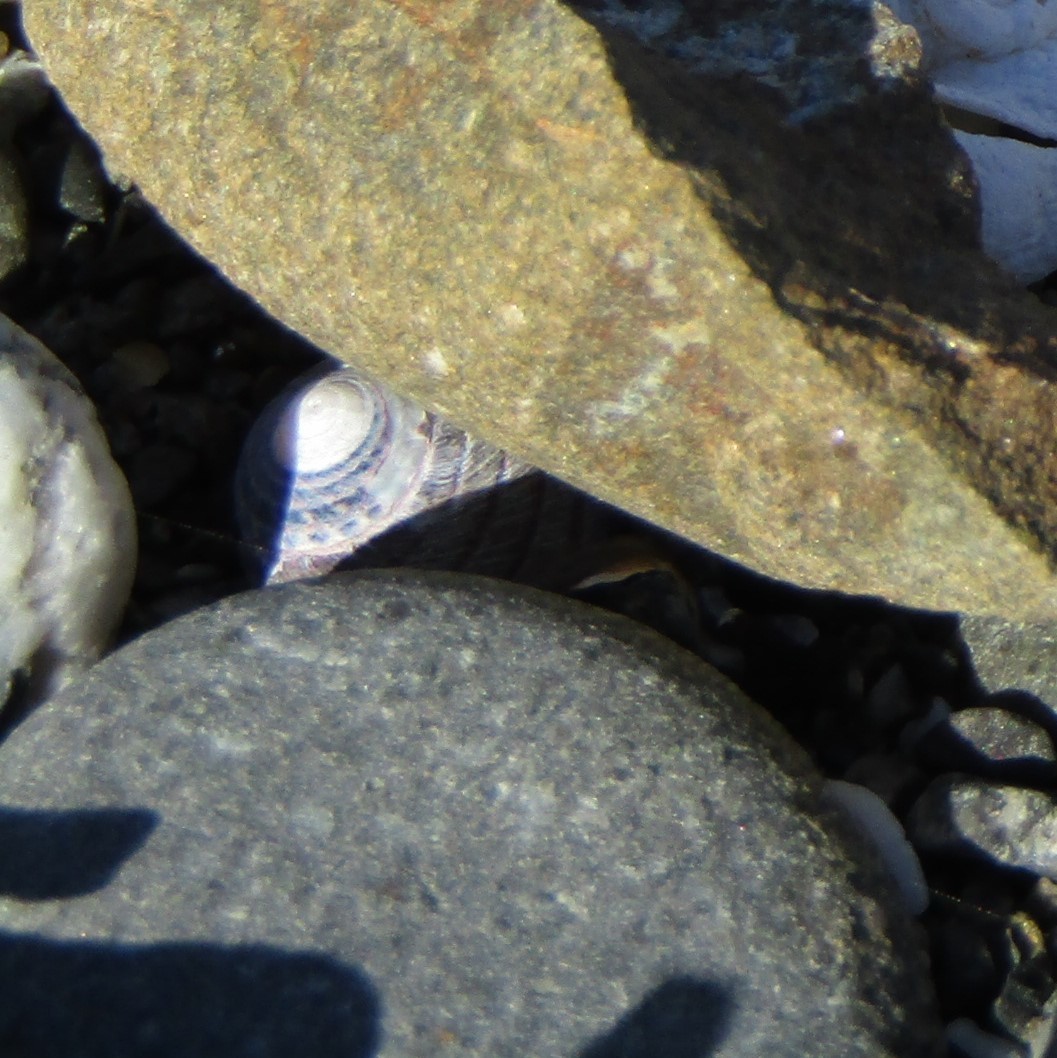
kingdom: Animalia
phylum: Mollusca
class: Gastropoda
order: Trochida
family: Trochidae
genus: Diloma
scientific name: Diloma aethiops
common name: Scorched monodont
